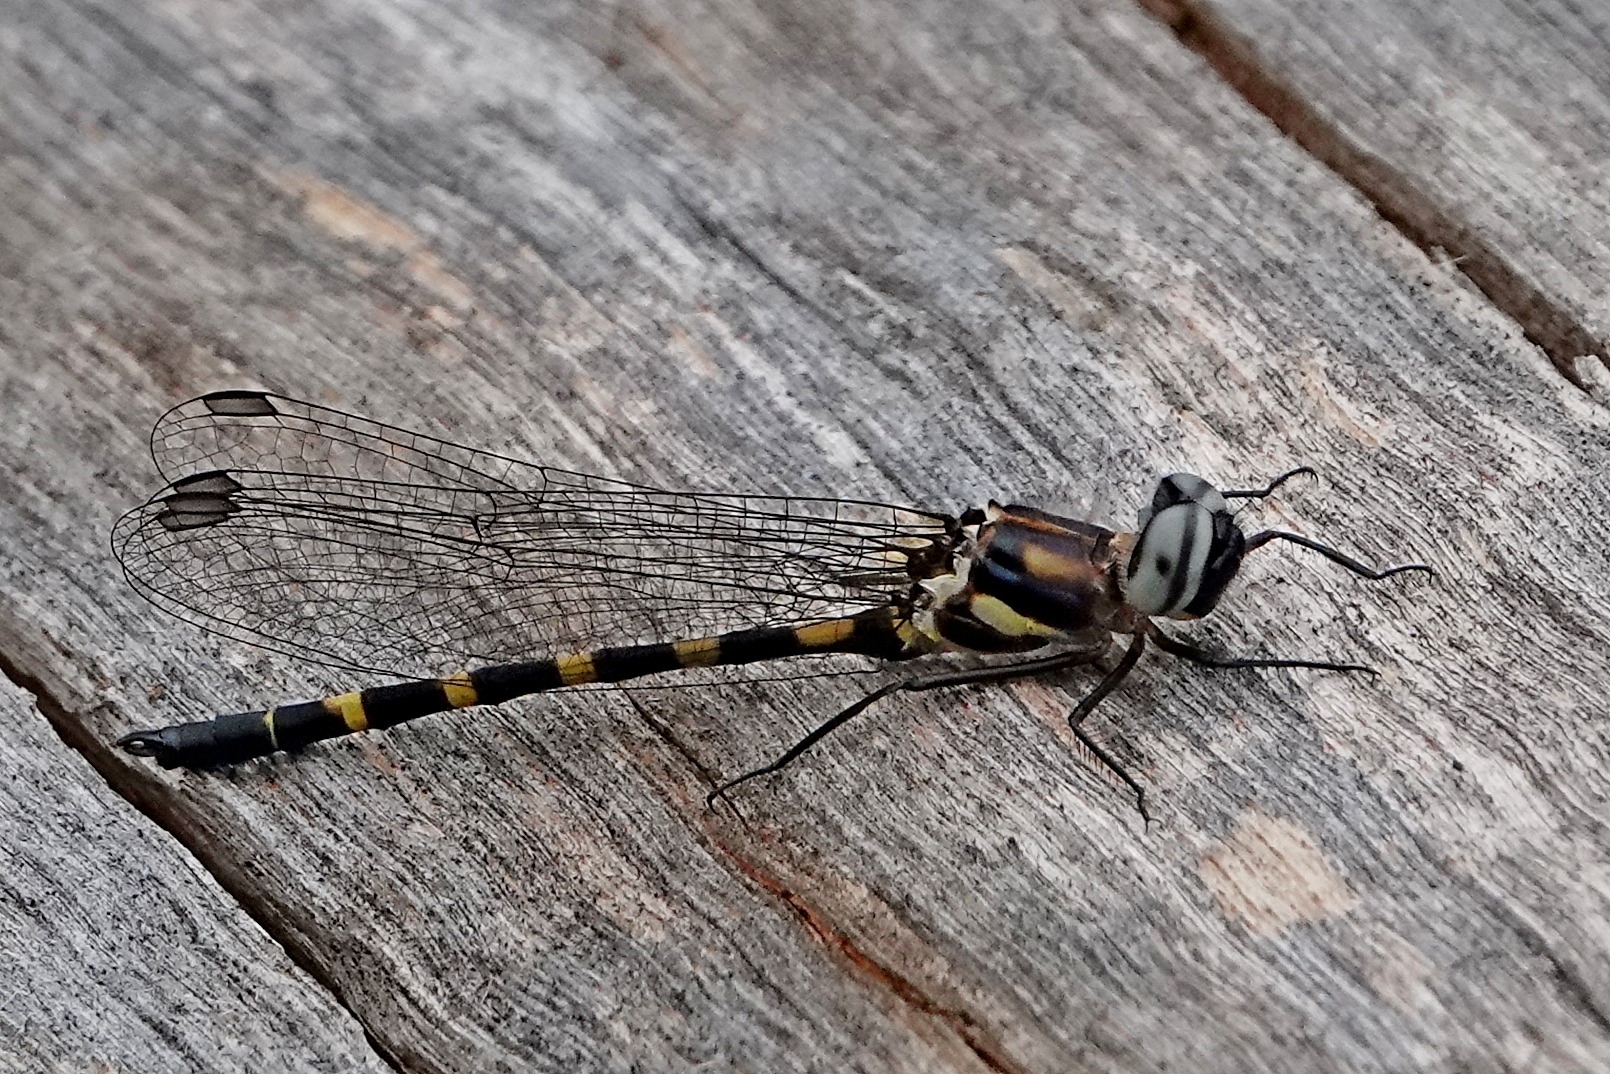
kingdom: Animalia
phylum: Arthropoda
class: Insecta
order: Odonata
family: Corduliidae
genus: Cordulephya
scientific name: Cordulephya pygmaea
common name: Common shutwing
